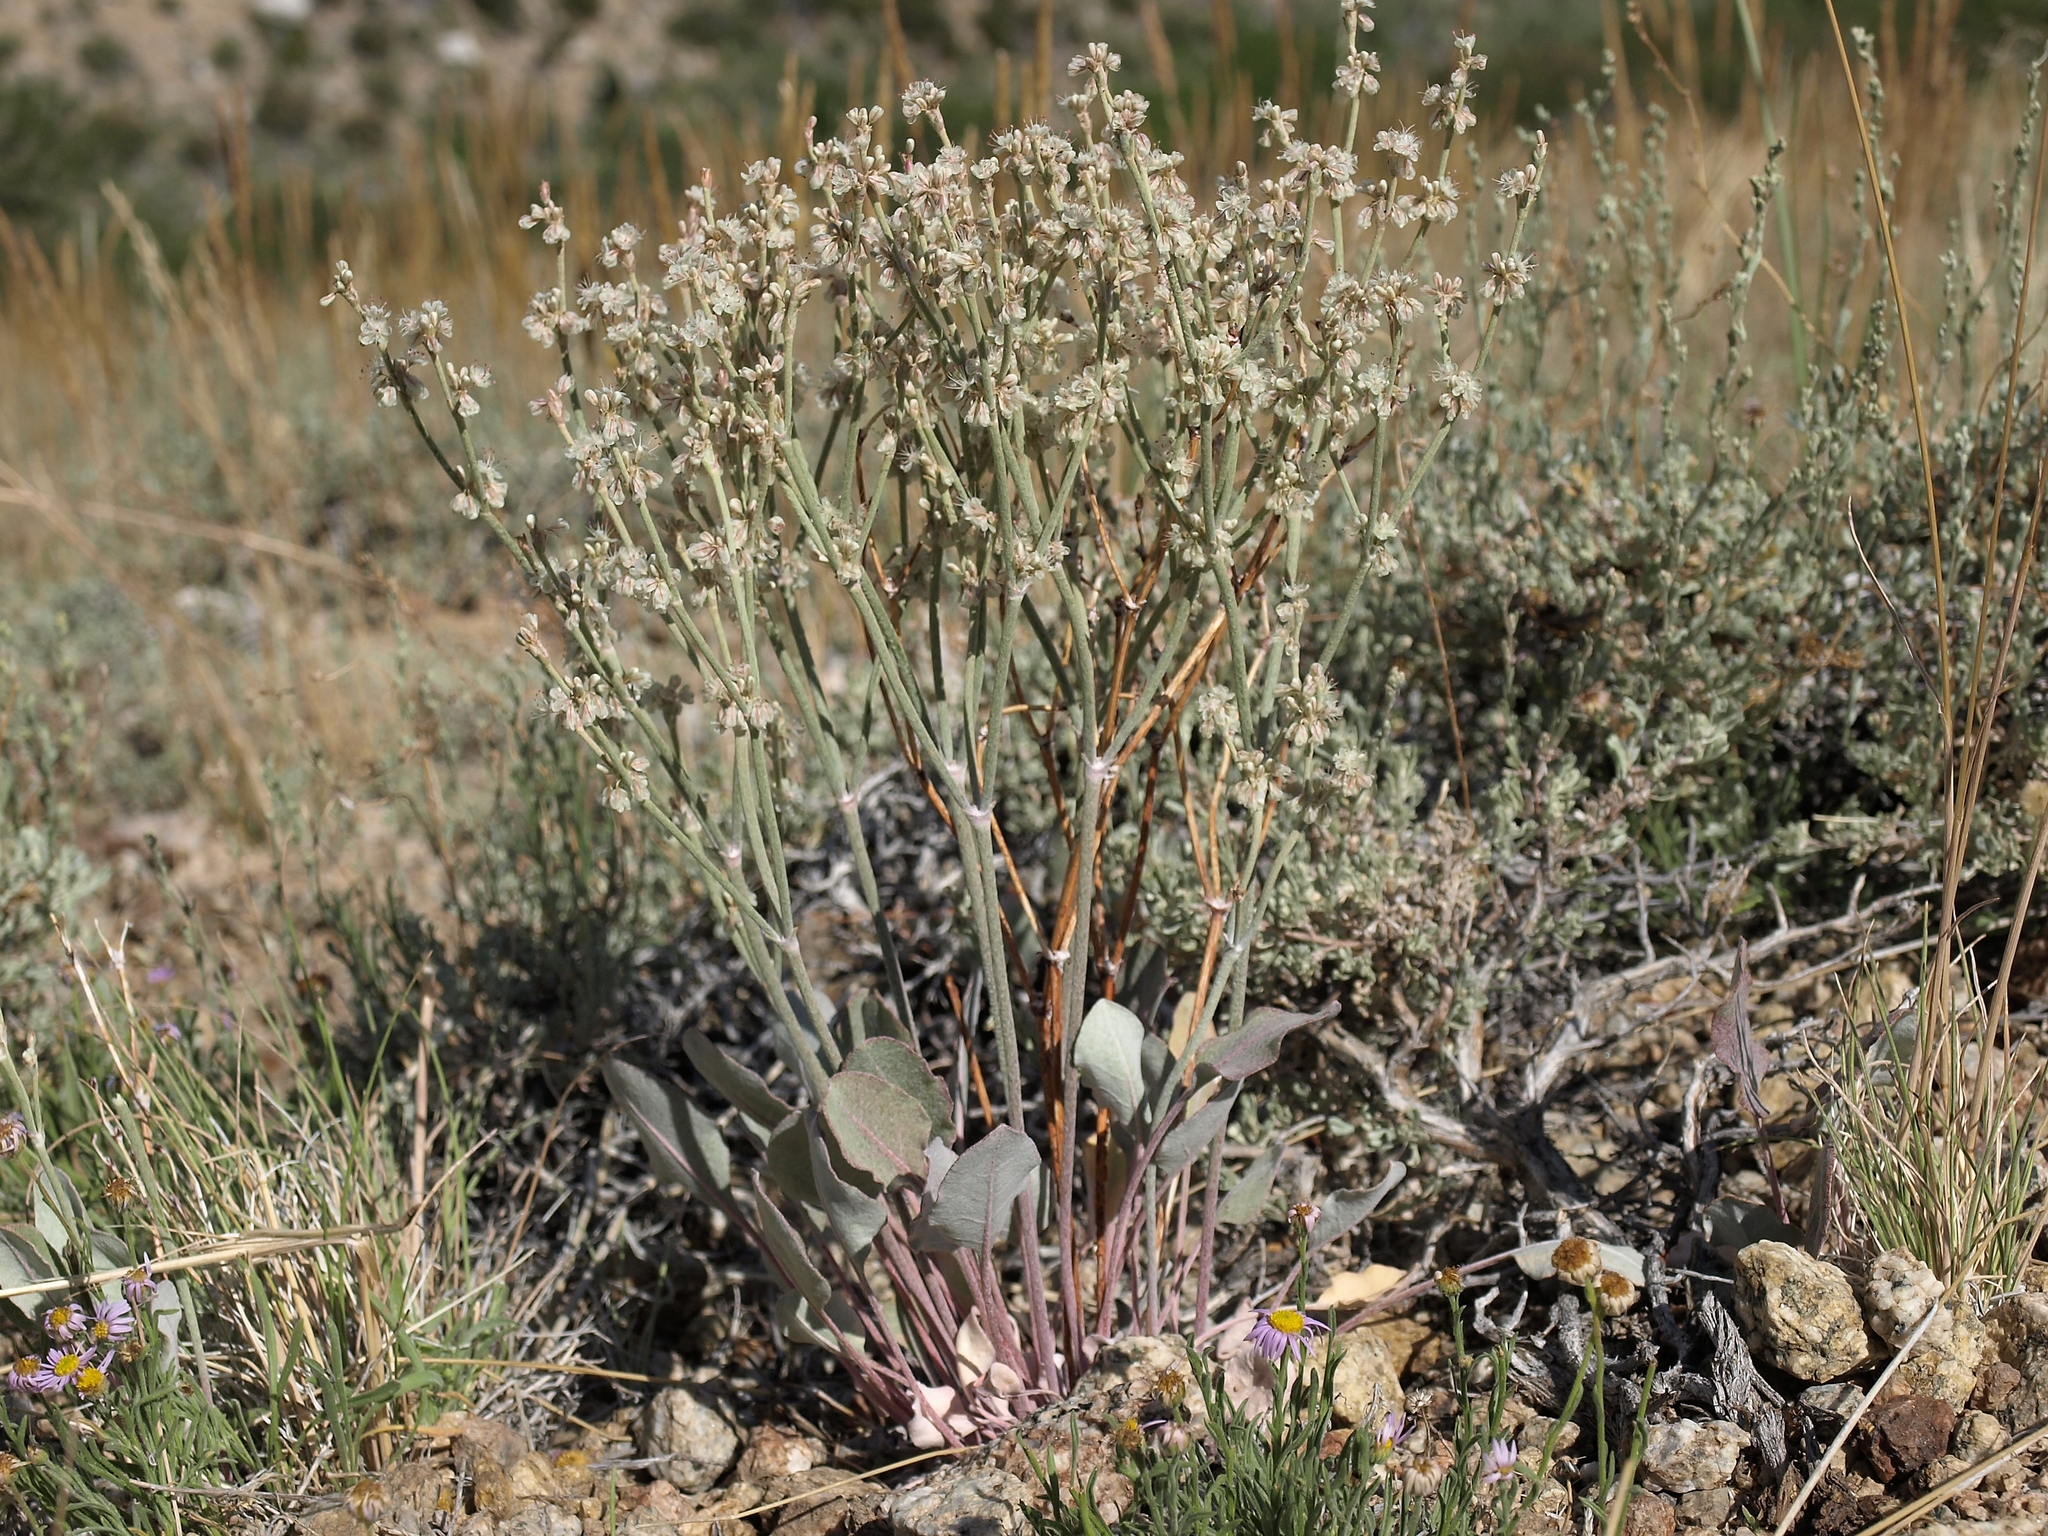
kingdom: Plantae
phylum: Tracheophyta
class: Magnoliopsida
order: Caryophyllales
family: Polygonaceae
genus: Eriogonum
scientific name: Eriogonum rupinum
